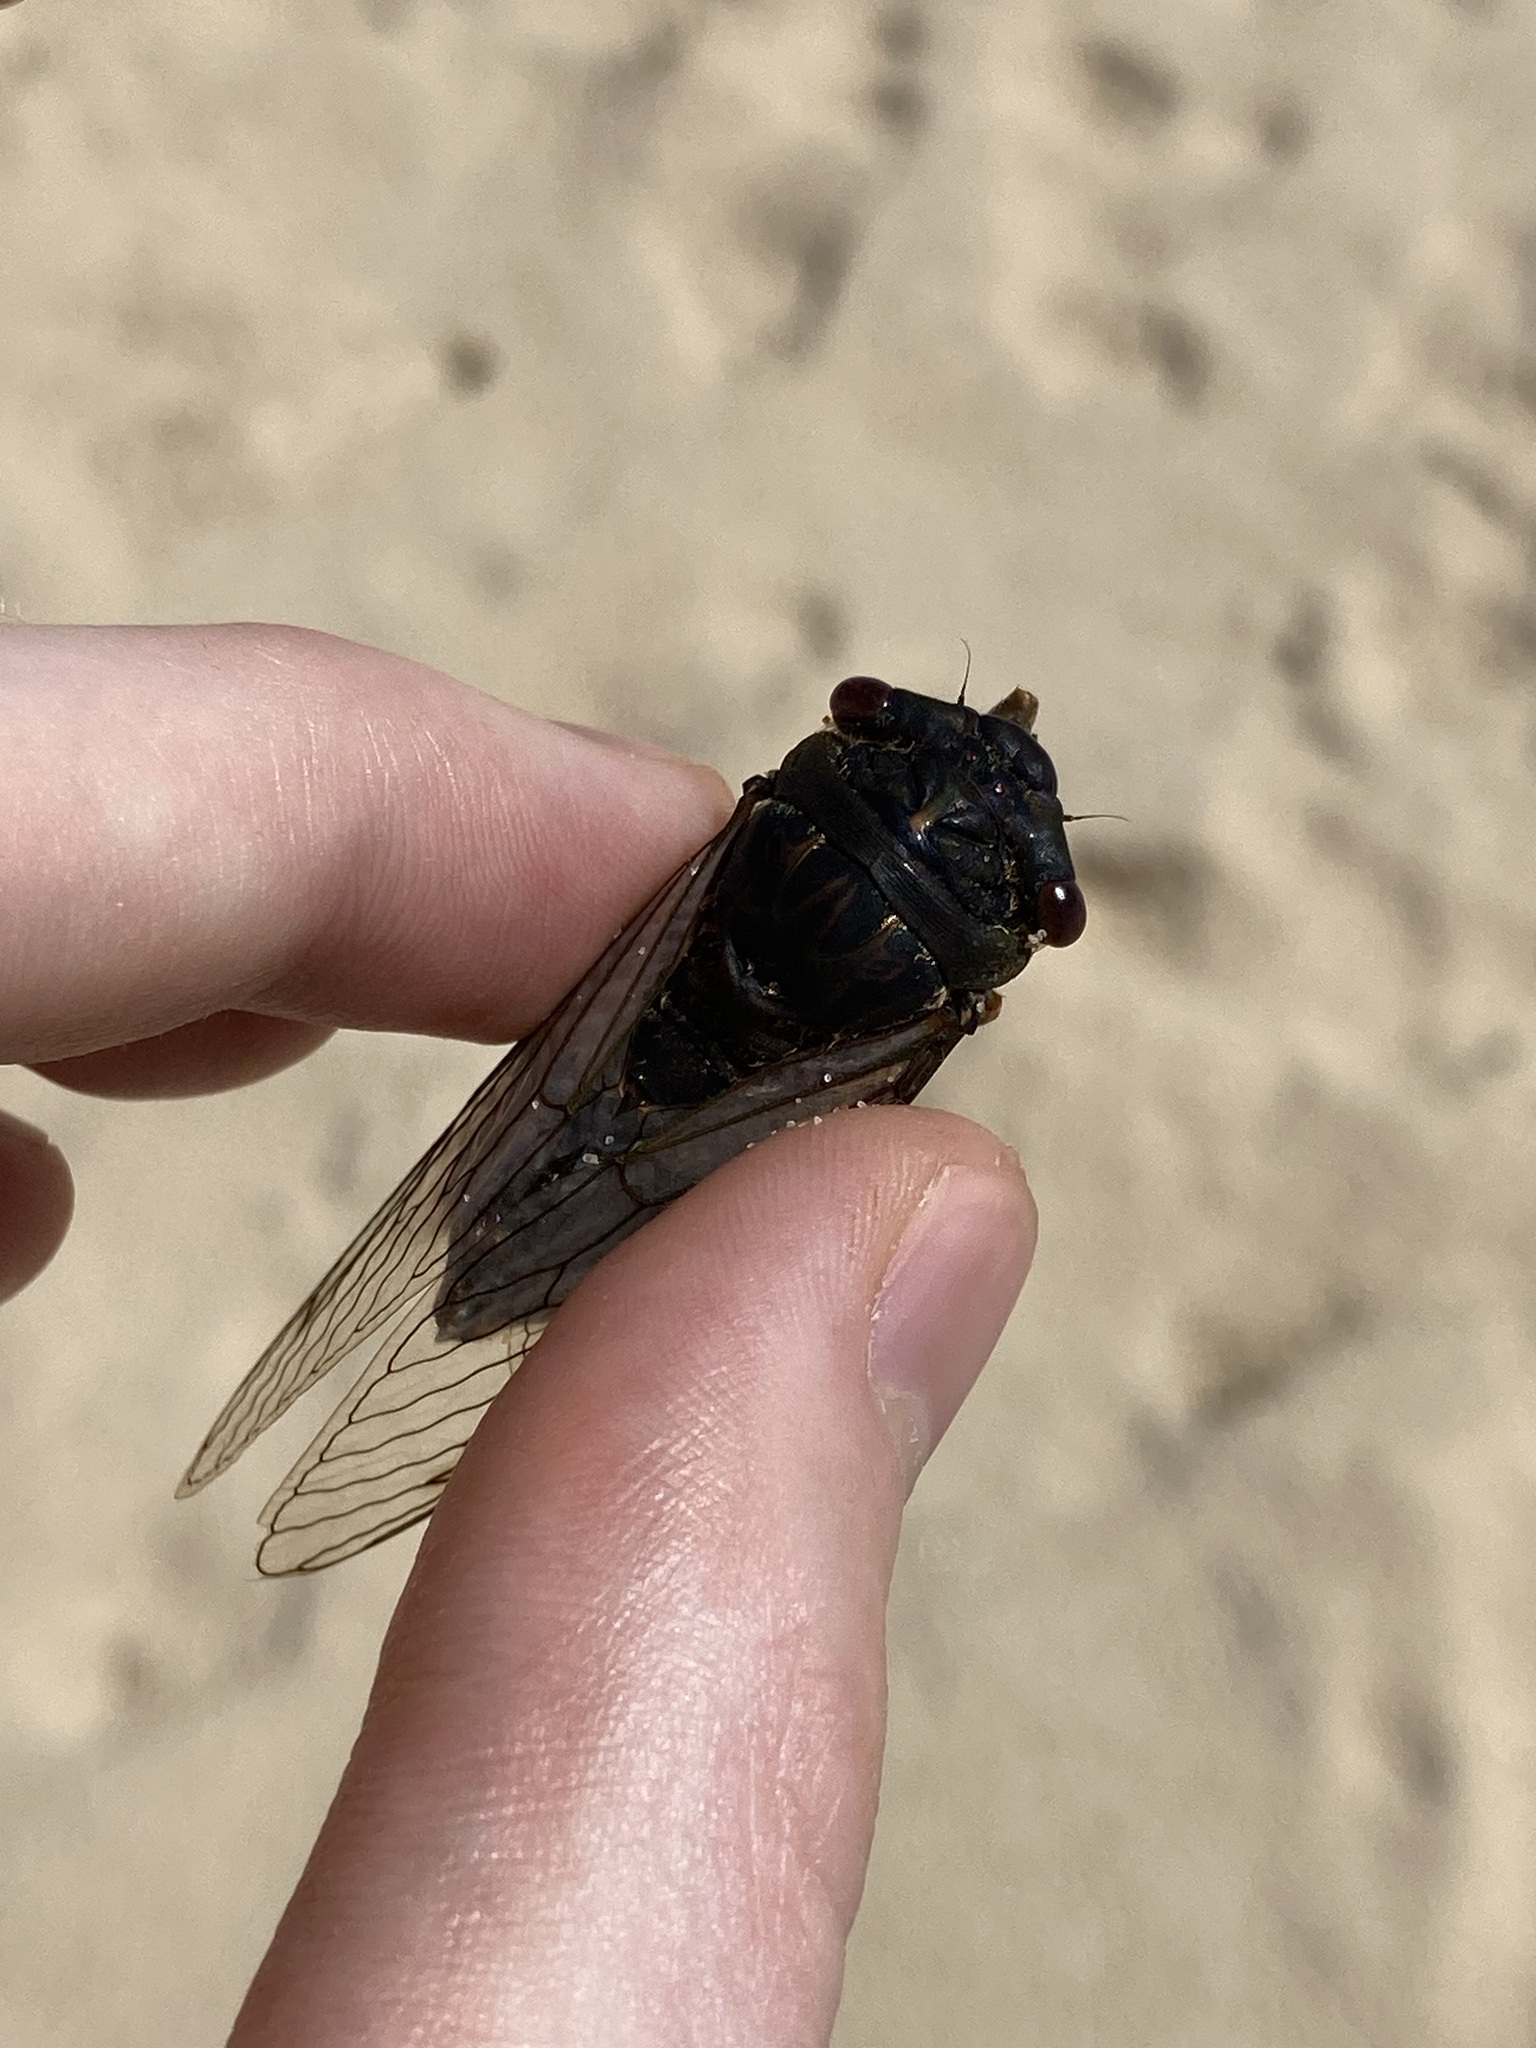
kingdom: Animalia
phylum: Arthropoda
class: Insecta
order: Hemiptera
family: Cicadidae
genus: Psaltoda
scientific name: Psaltoda plaga
